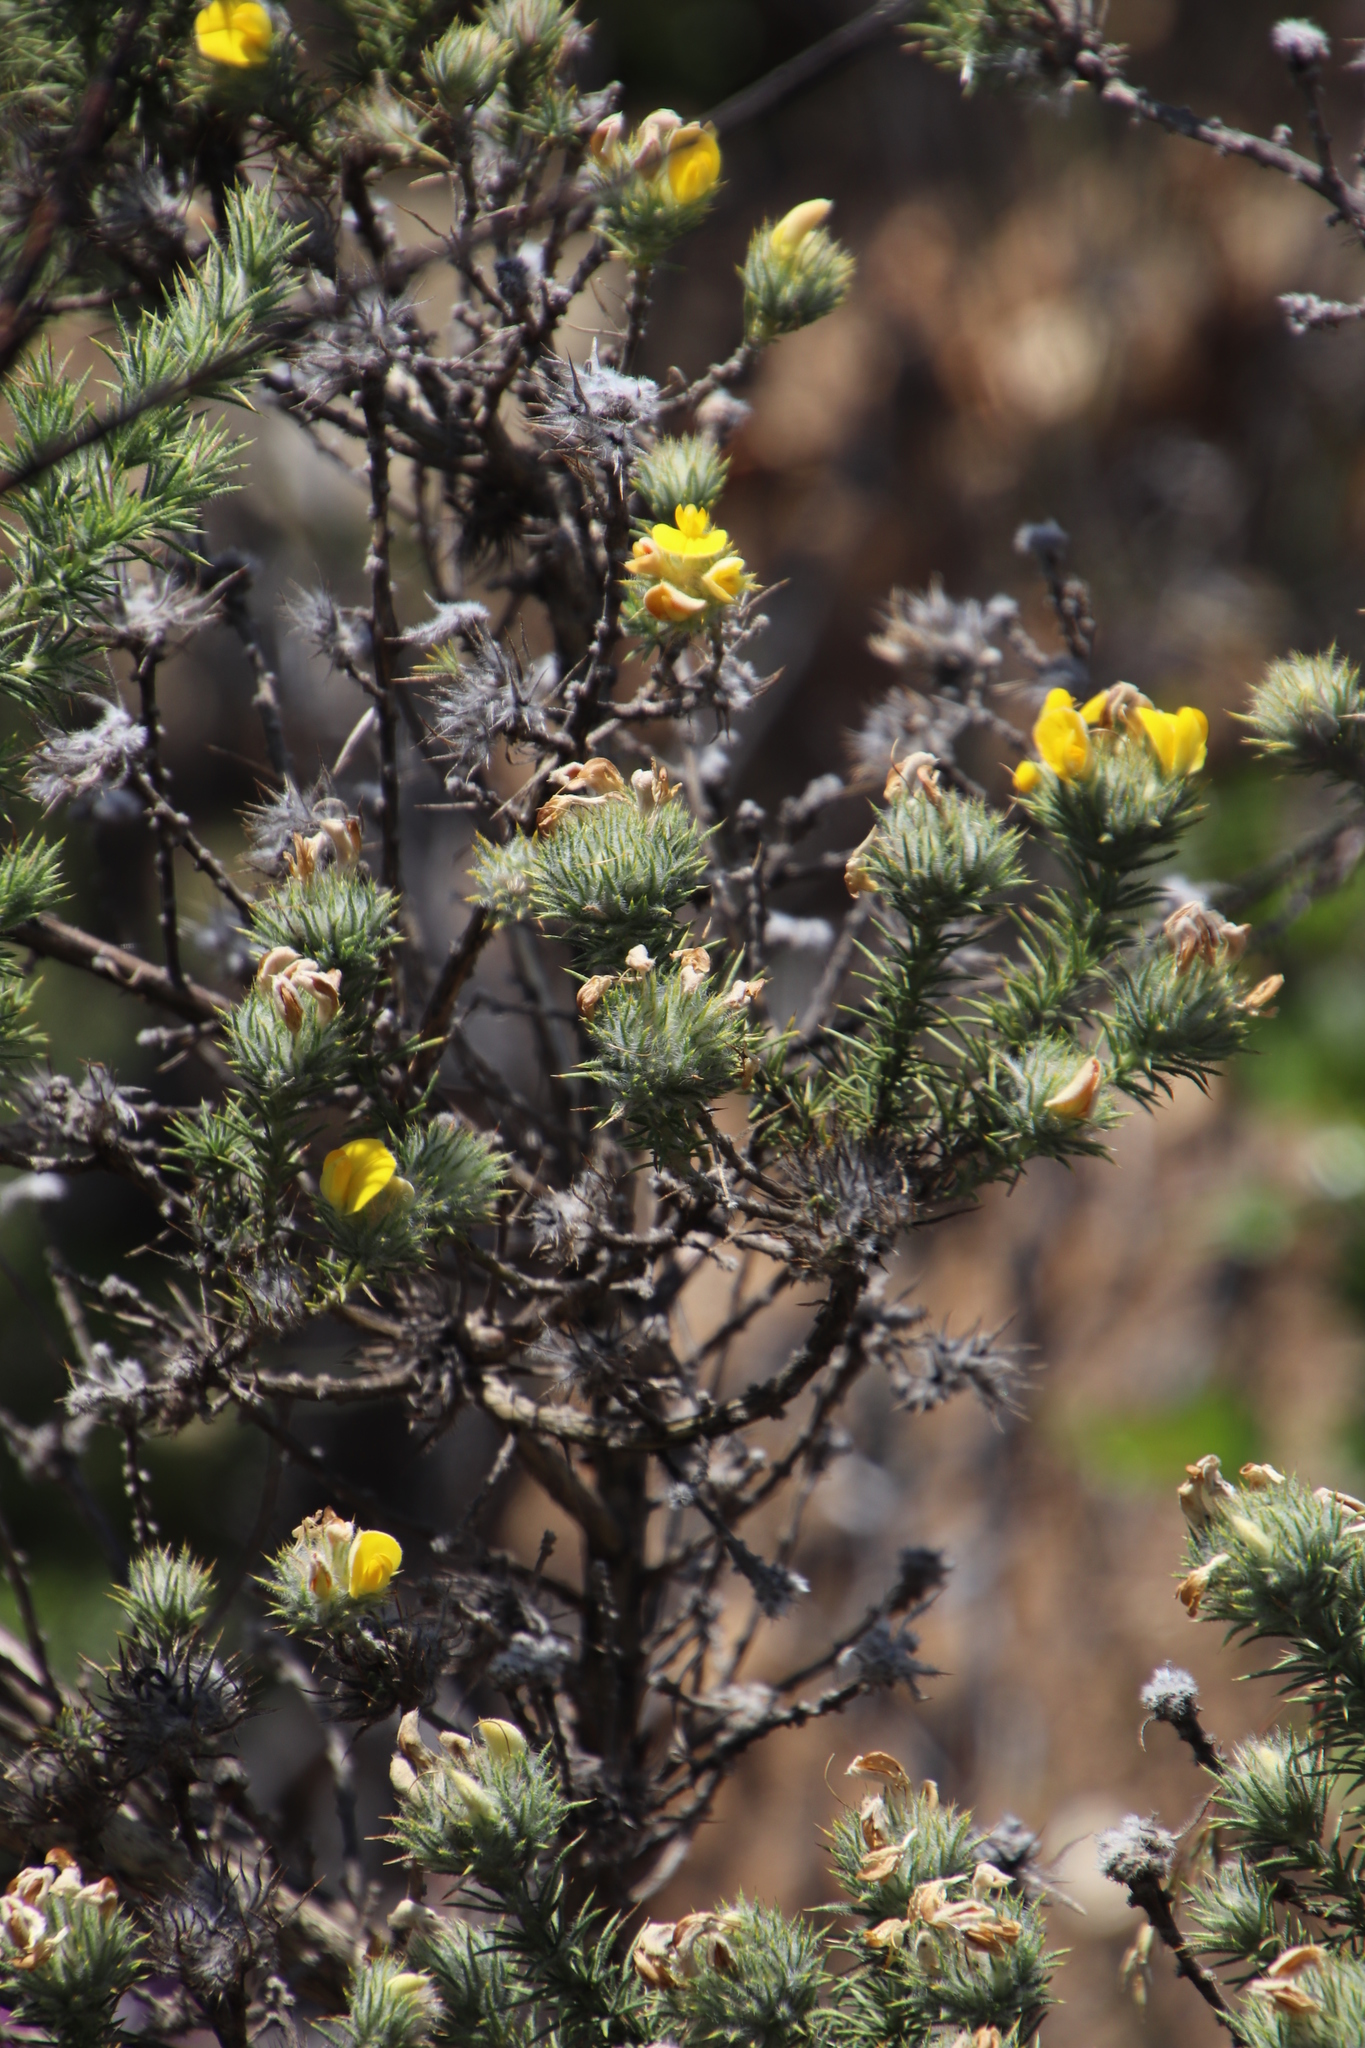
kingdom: Plantae
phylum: Tracheophyta
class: Magnoliopsida
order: Fabales
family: Fabaceae
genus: Aspalathus
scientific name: Aspalathus chenopoda
